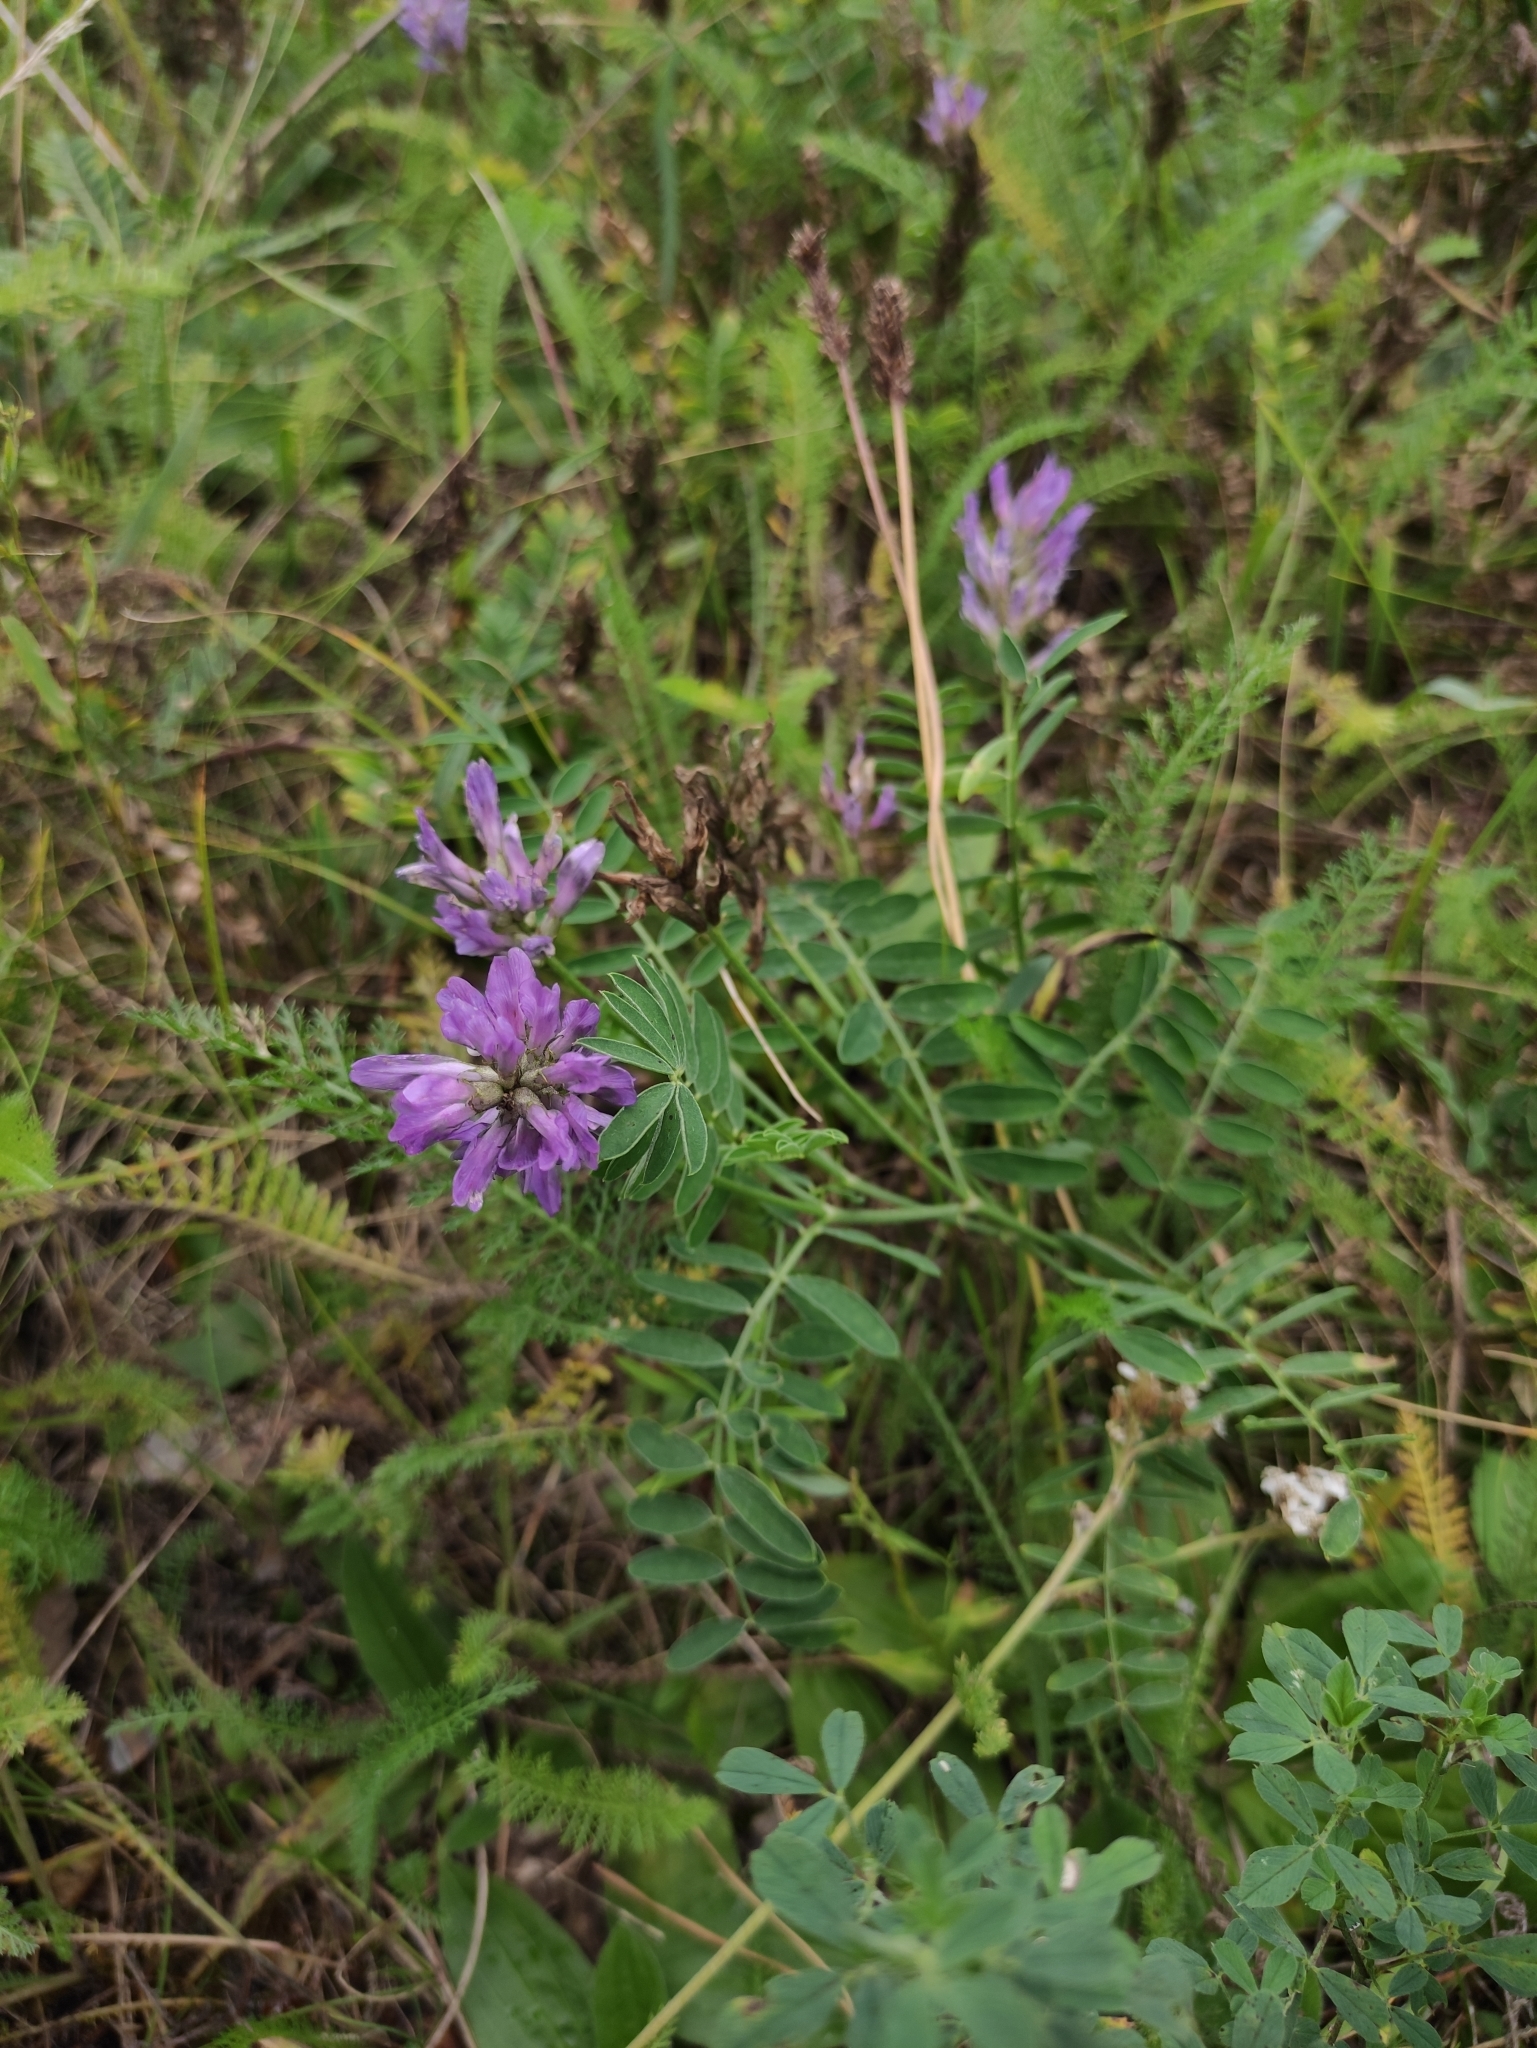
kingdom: Plantae
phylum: Tracheophyta
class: Magnoliopsida
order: Fabales
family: Fabaceae
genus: Astragalus
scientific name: Astragalus laxmannii
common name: Laxmann's milk-vetch
